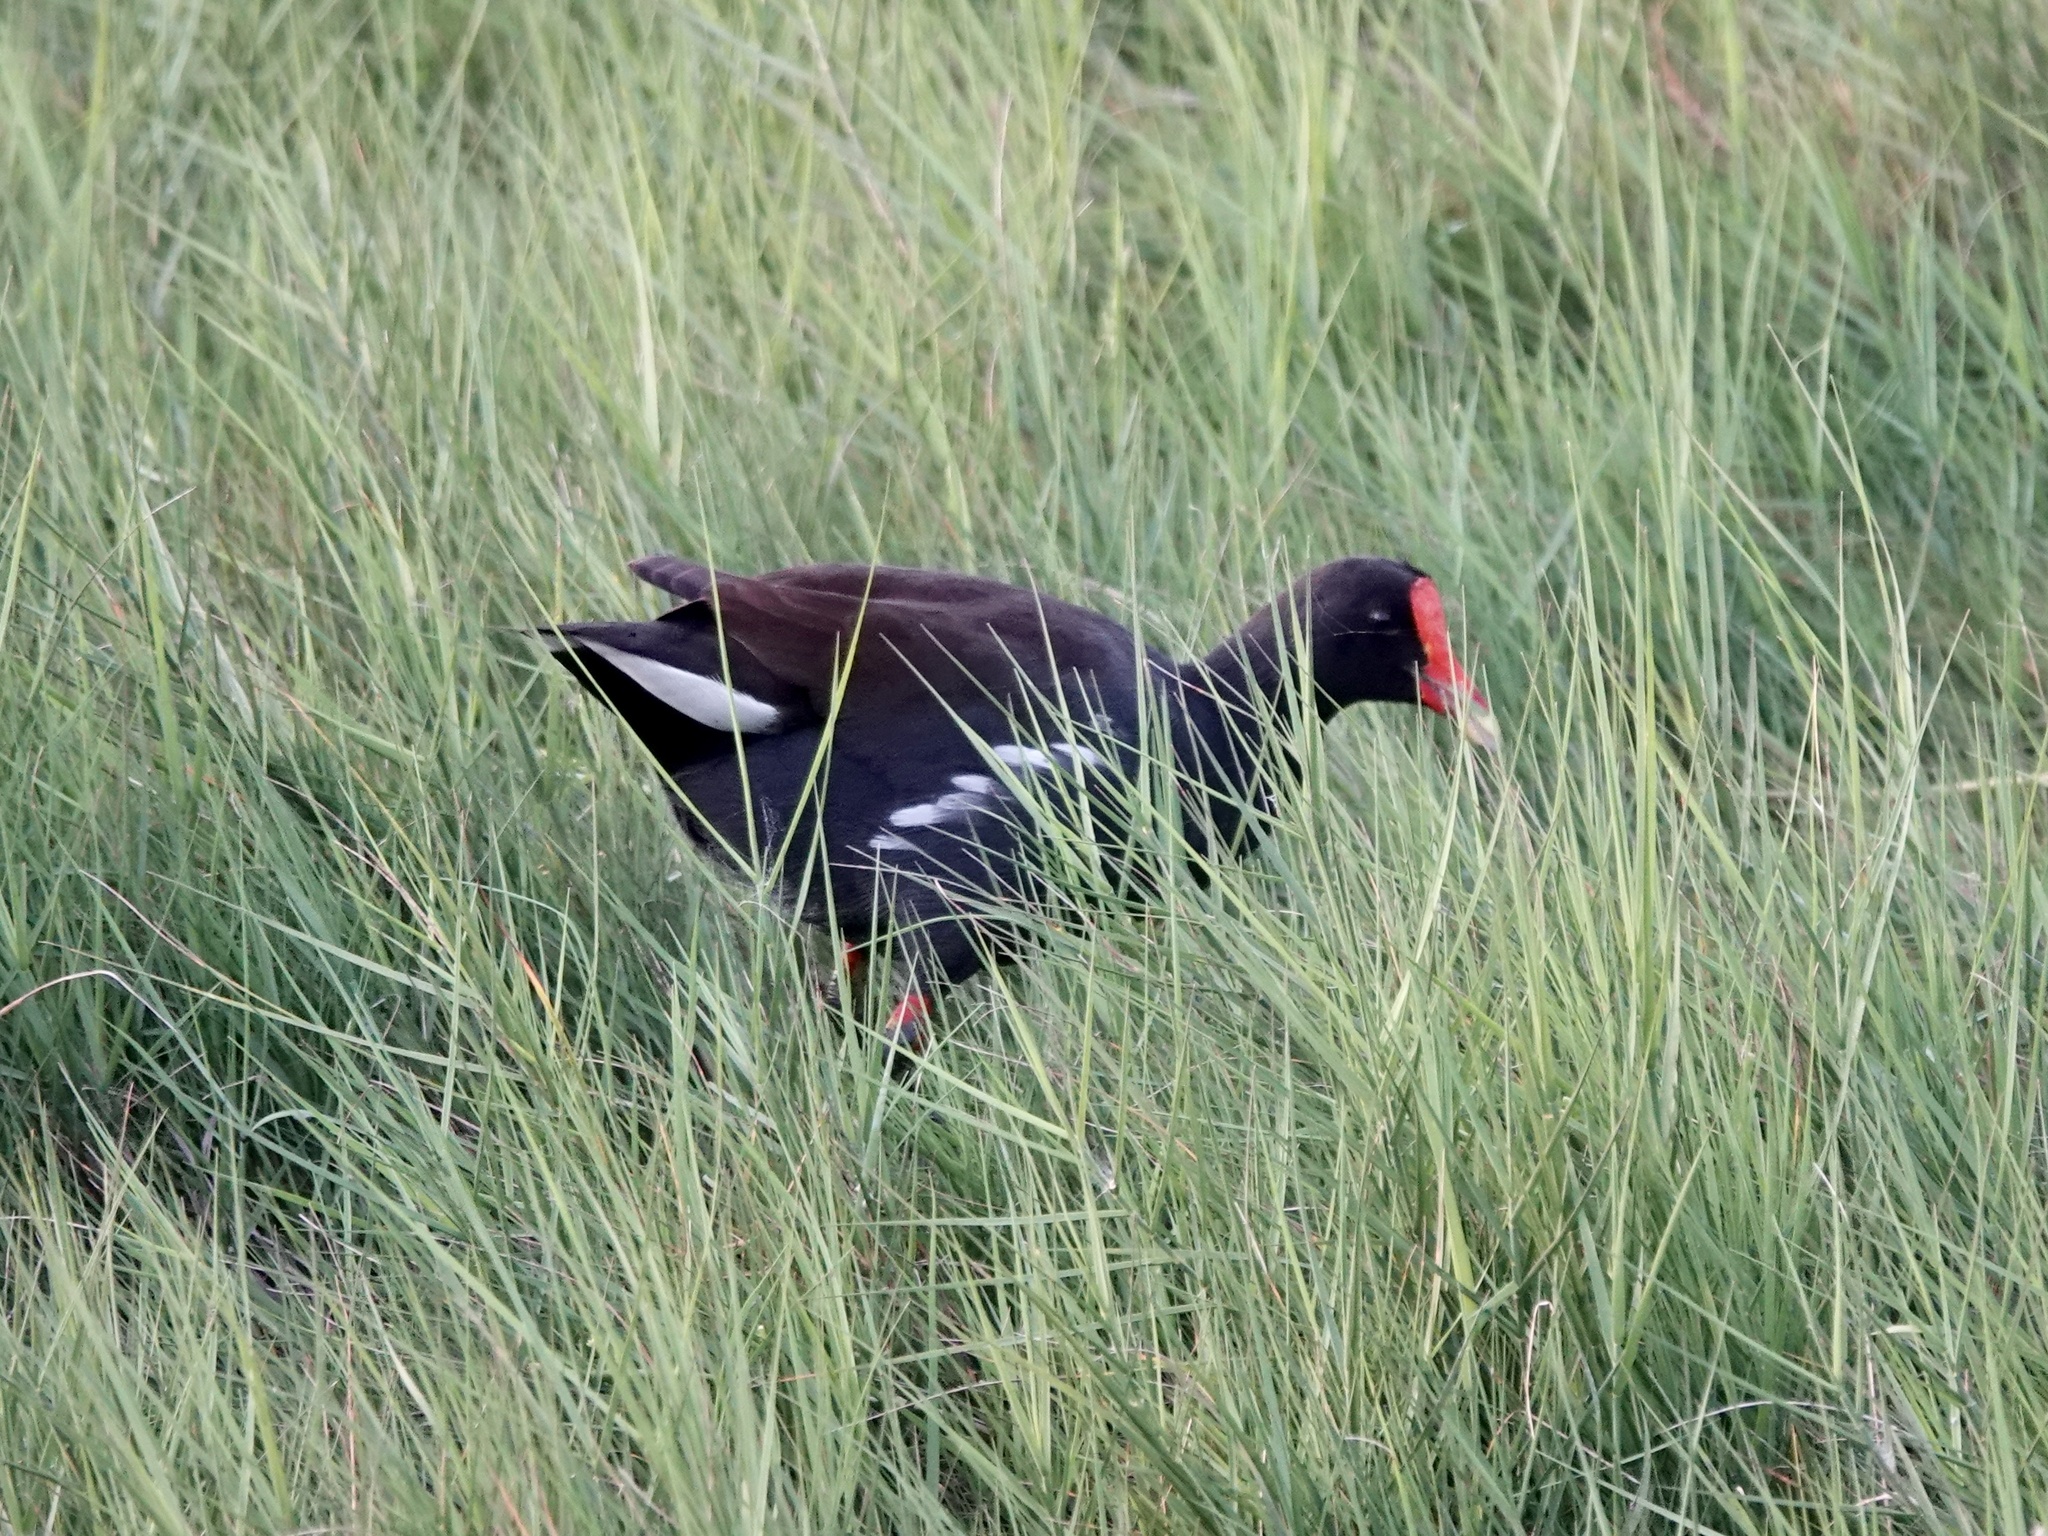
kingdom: Animalia
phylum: Chordata
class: Aves
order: Gruiformes
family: Rallidae
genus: Gallinula
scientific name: Gallinula chloropus
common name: Common moorhen
